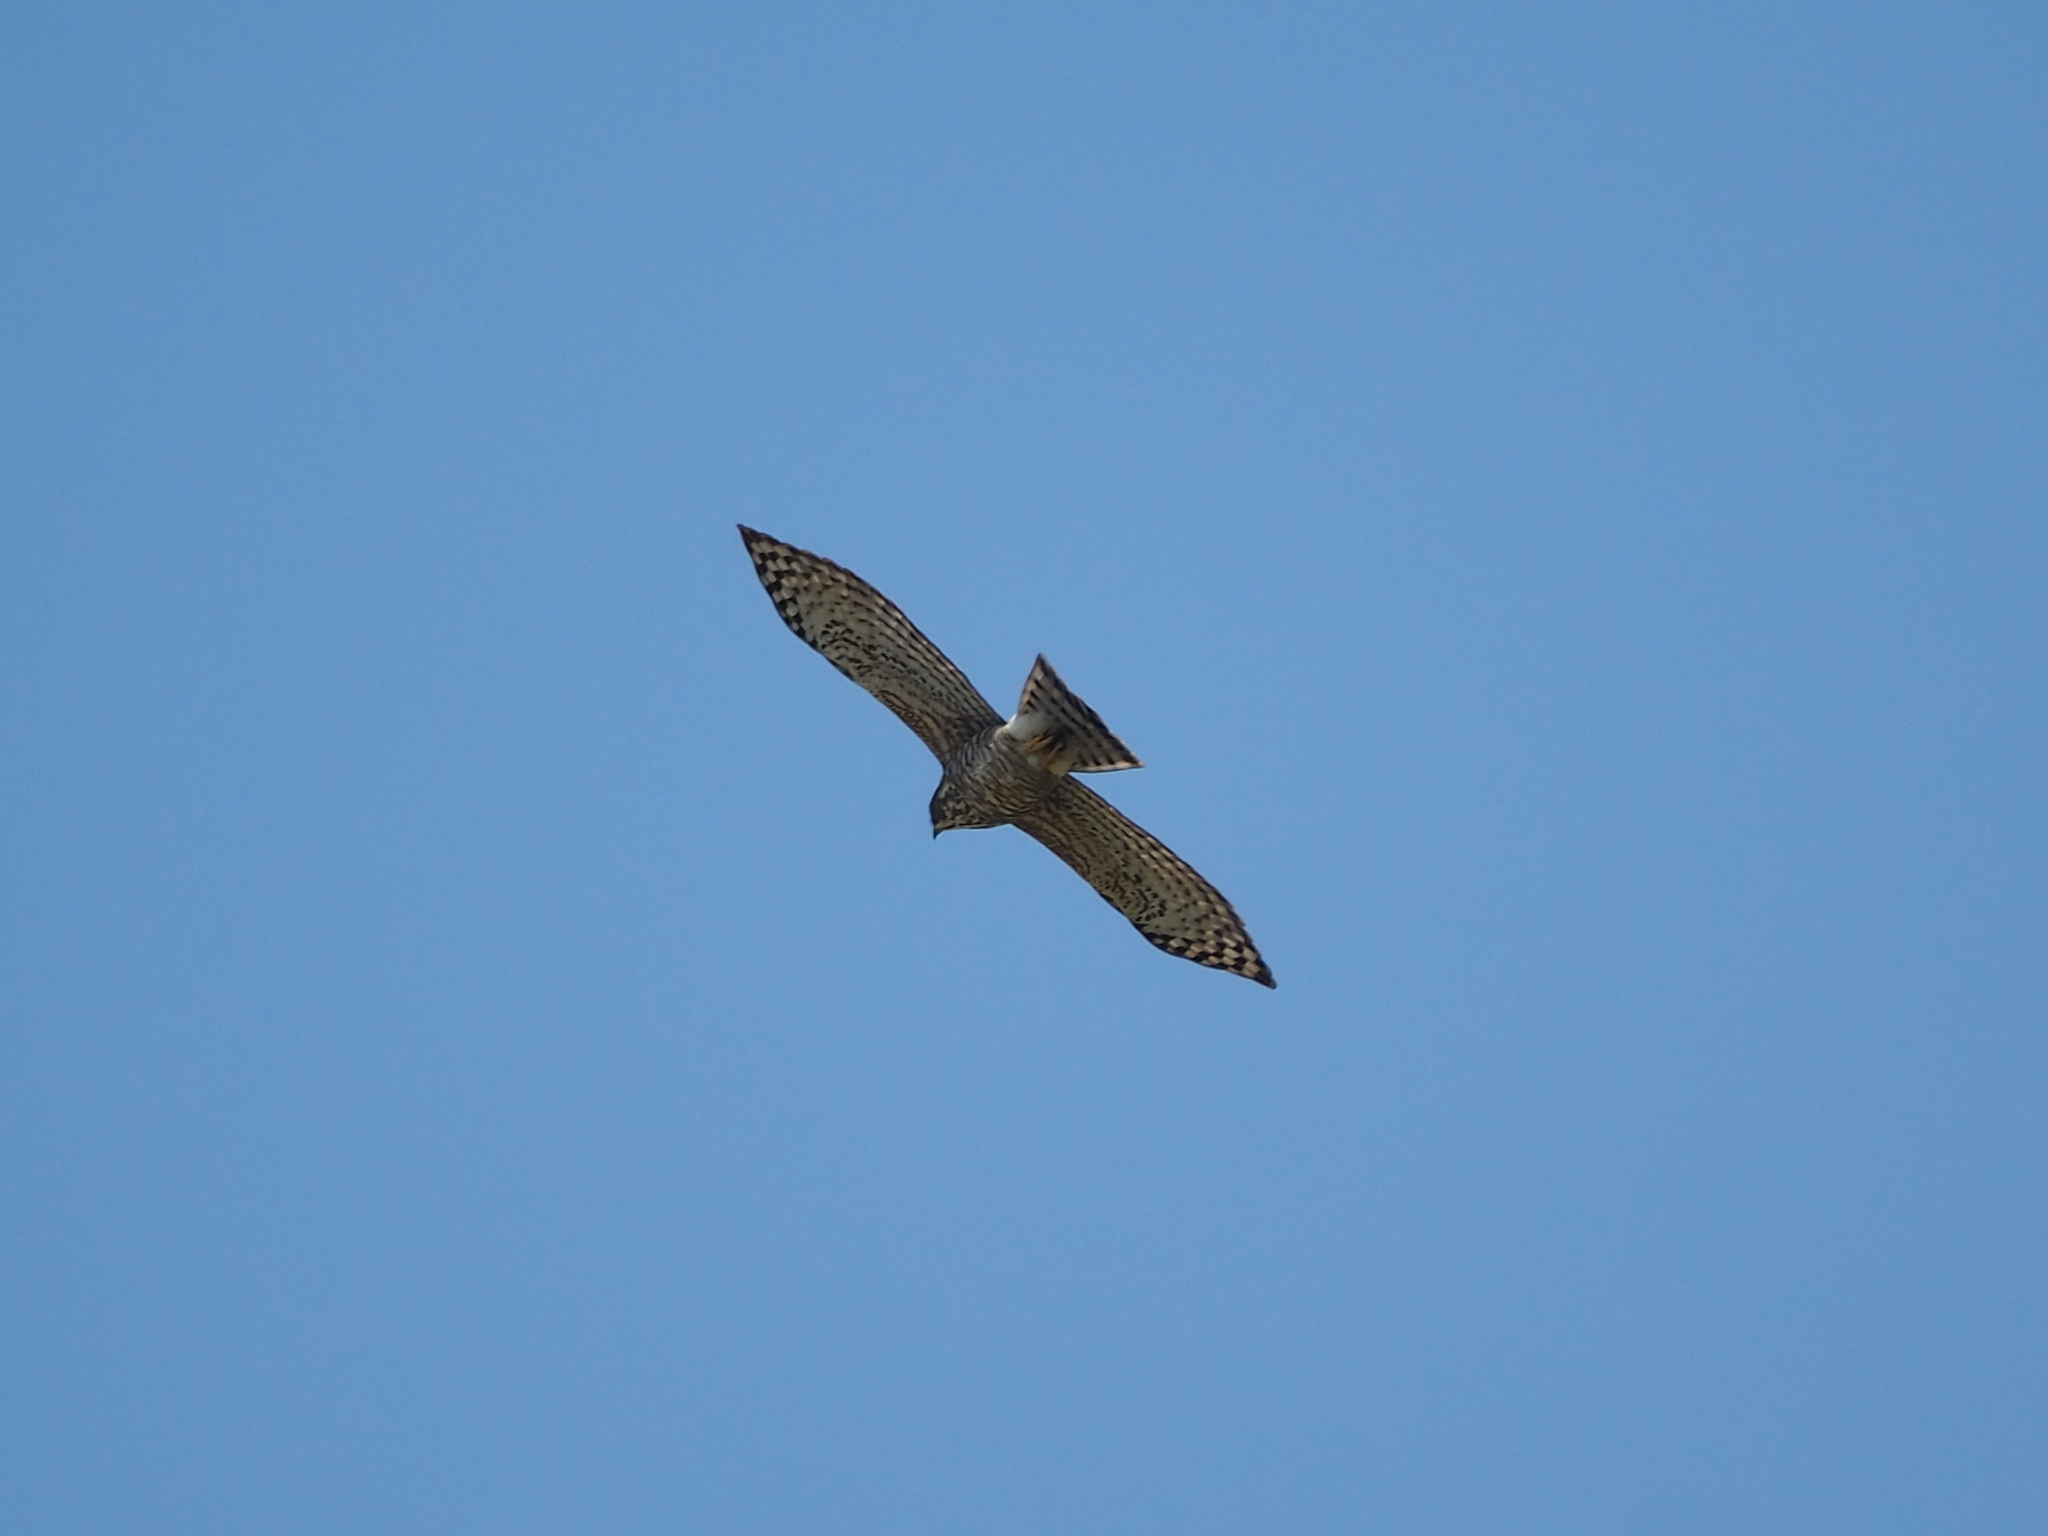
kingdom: Animalia
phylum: Chordata
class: Aves
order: Accipitriformes
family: Accipitridae
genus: Accipiter
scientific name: Accipiter trivirgatus
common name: Crested goshawk
